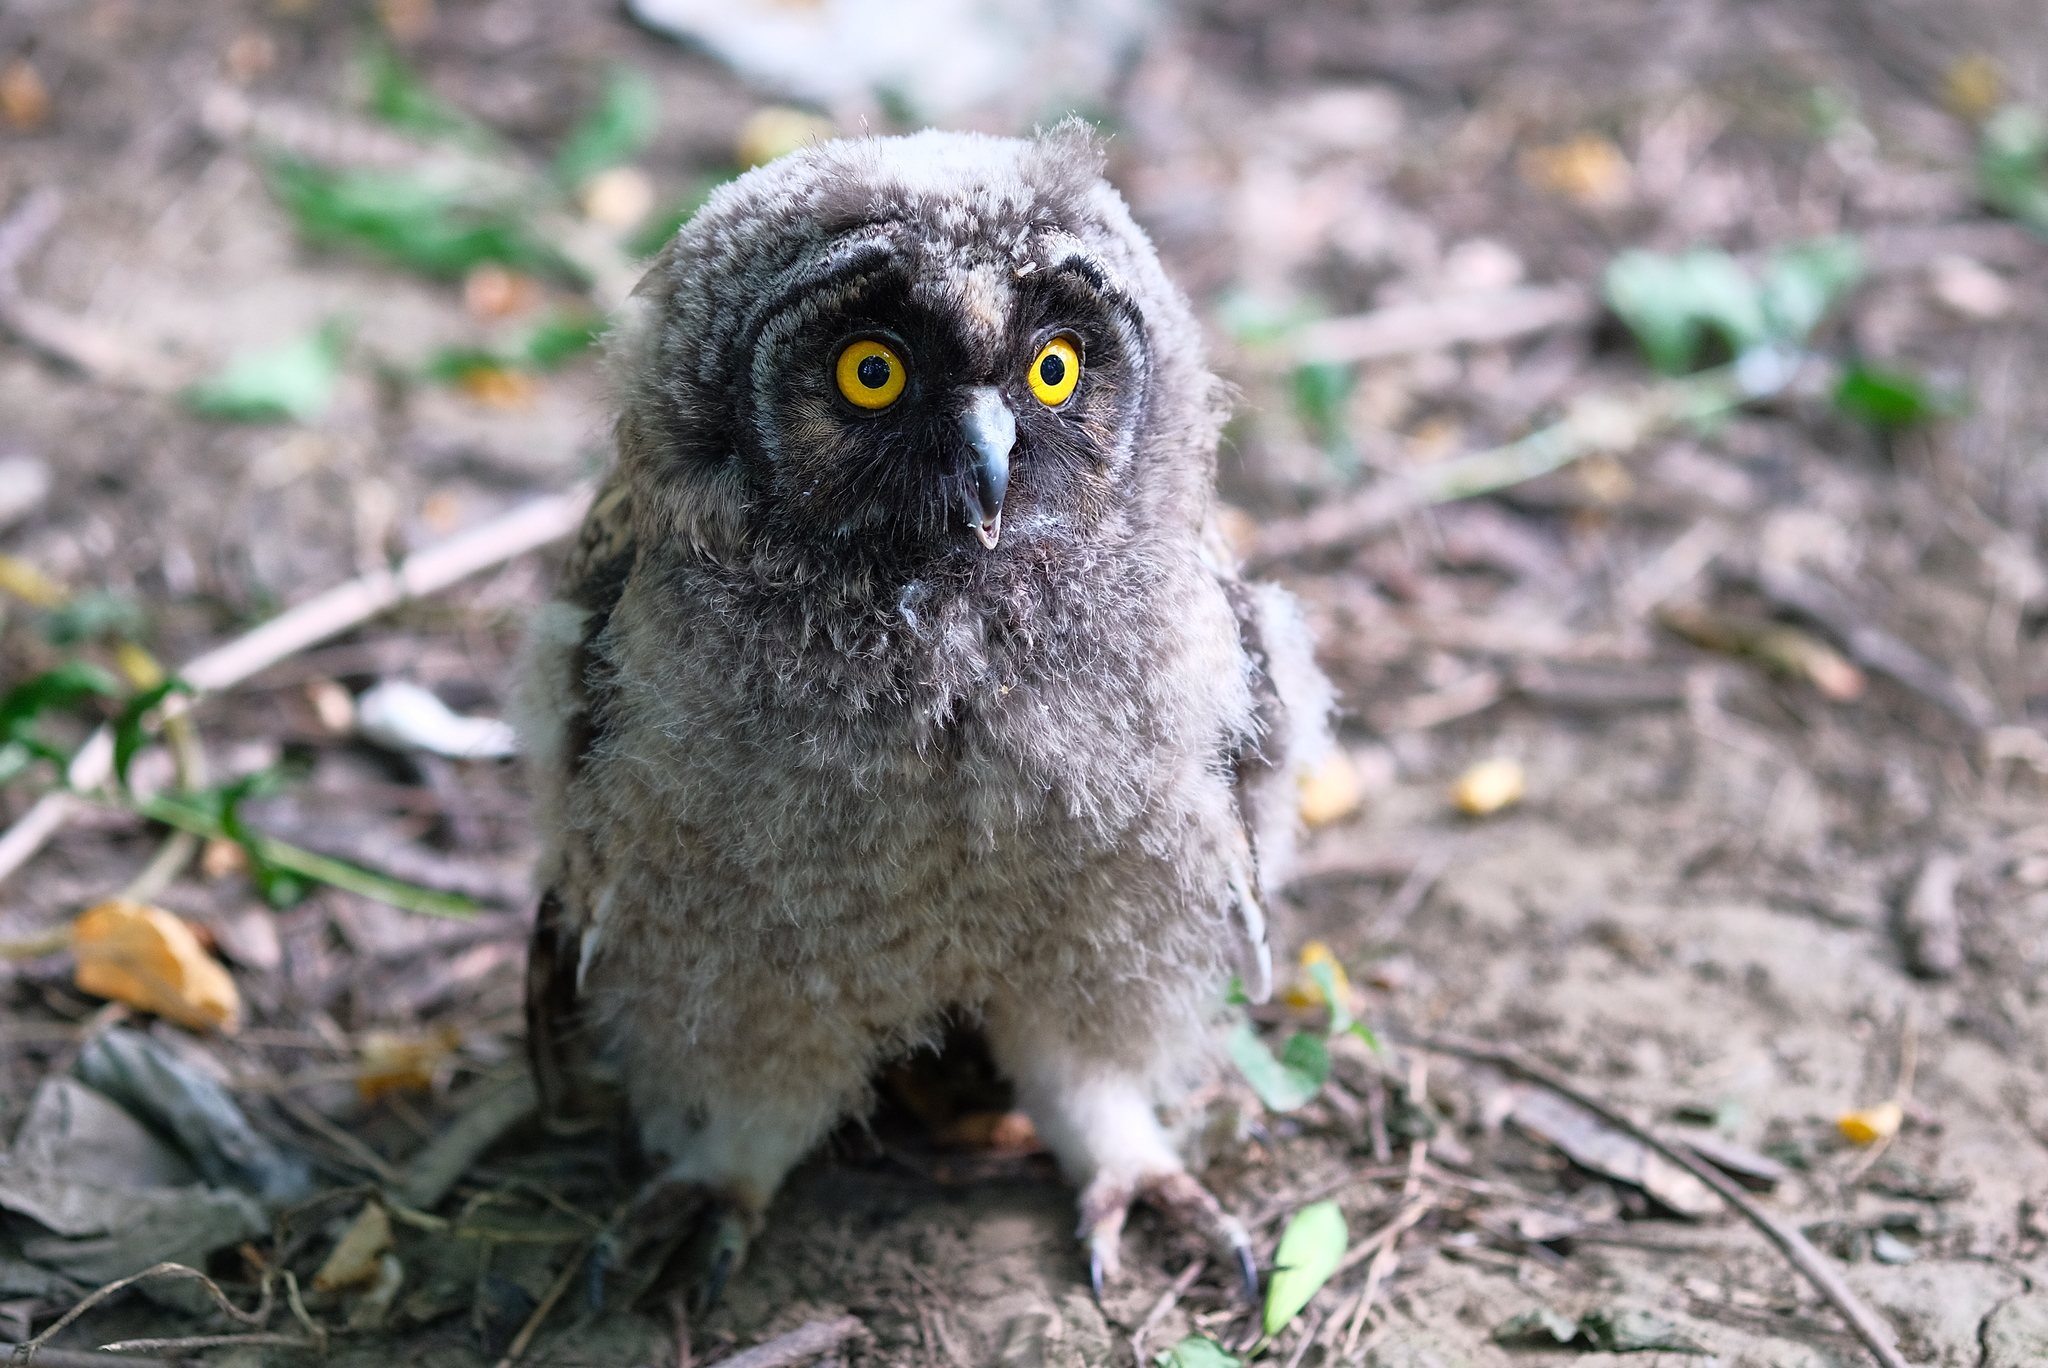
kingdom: Animalia
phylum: Chordata
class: Aves
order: Strigiformes
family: Strigidae
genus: Asio
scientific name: Asio otus
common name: Long-eared owl
